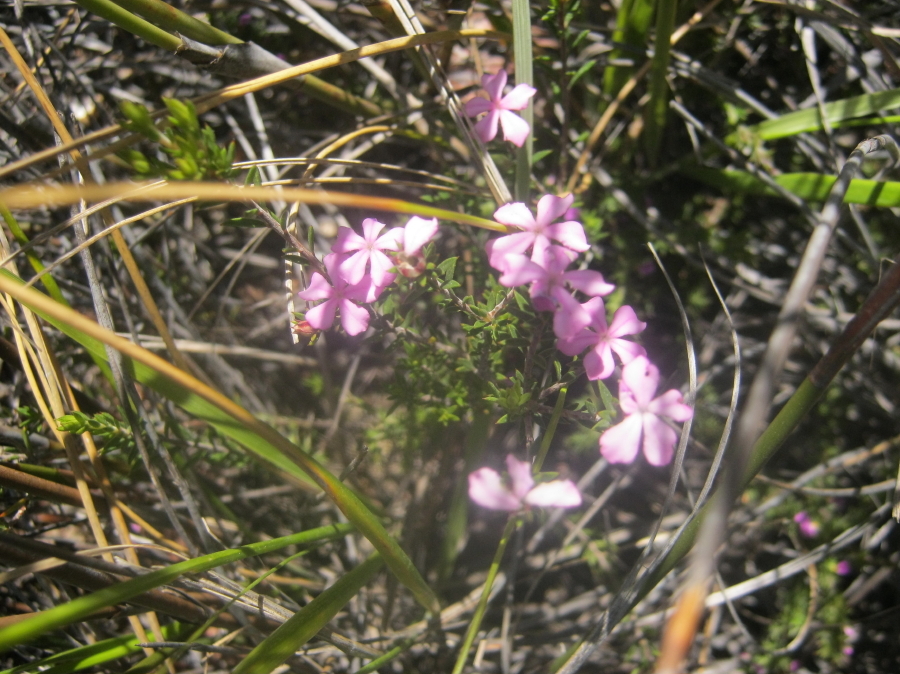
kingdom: Plantae
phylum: Tracheophyta
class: Magnoliopsida
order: Sapindales
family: Rutaceae
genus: Acmadenia
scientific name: Acmadenia maculata
